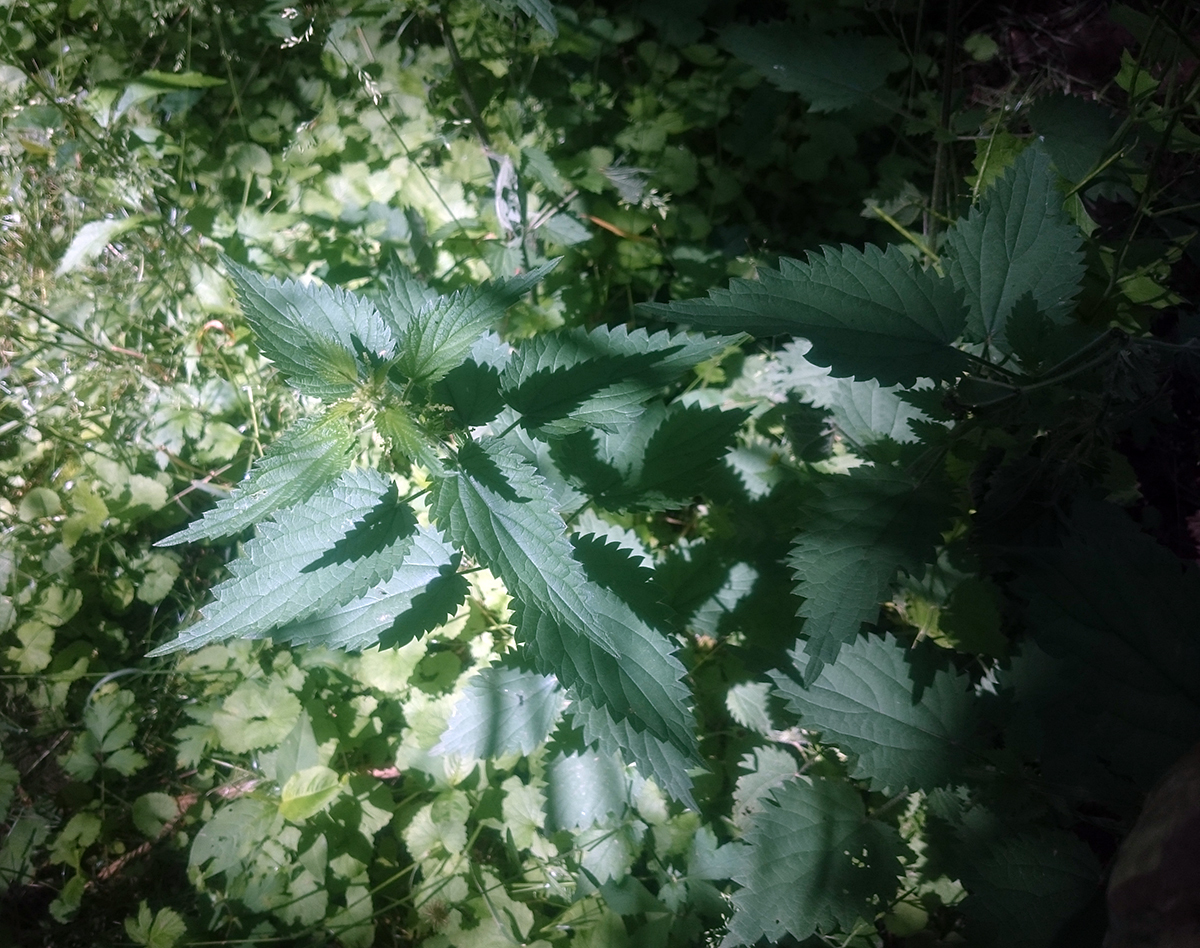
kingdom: Plantae
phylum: Tracheophyta
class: Magnoliopsida
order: Rosales
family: Urticaceae
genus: Urtica
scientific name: Urtica dioica
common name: Common nettle
